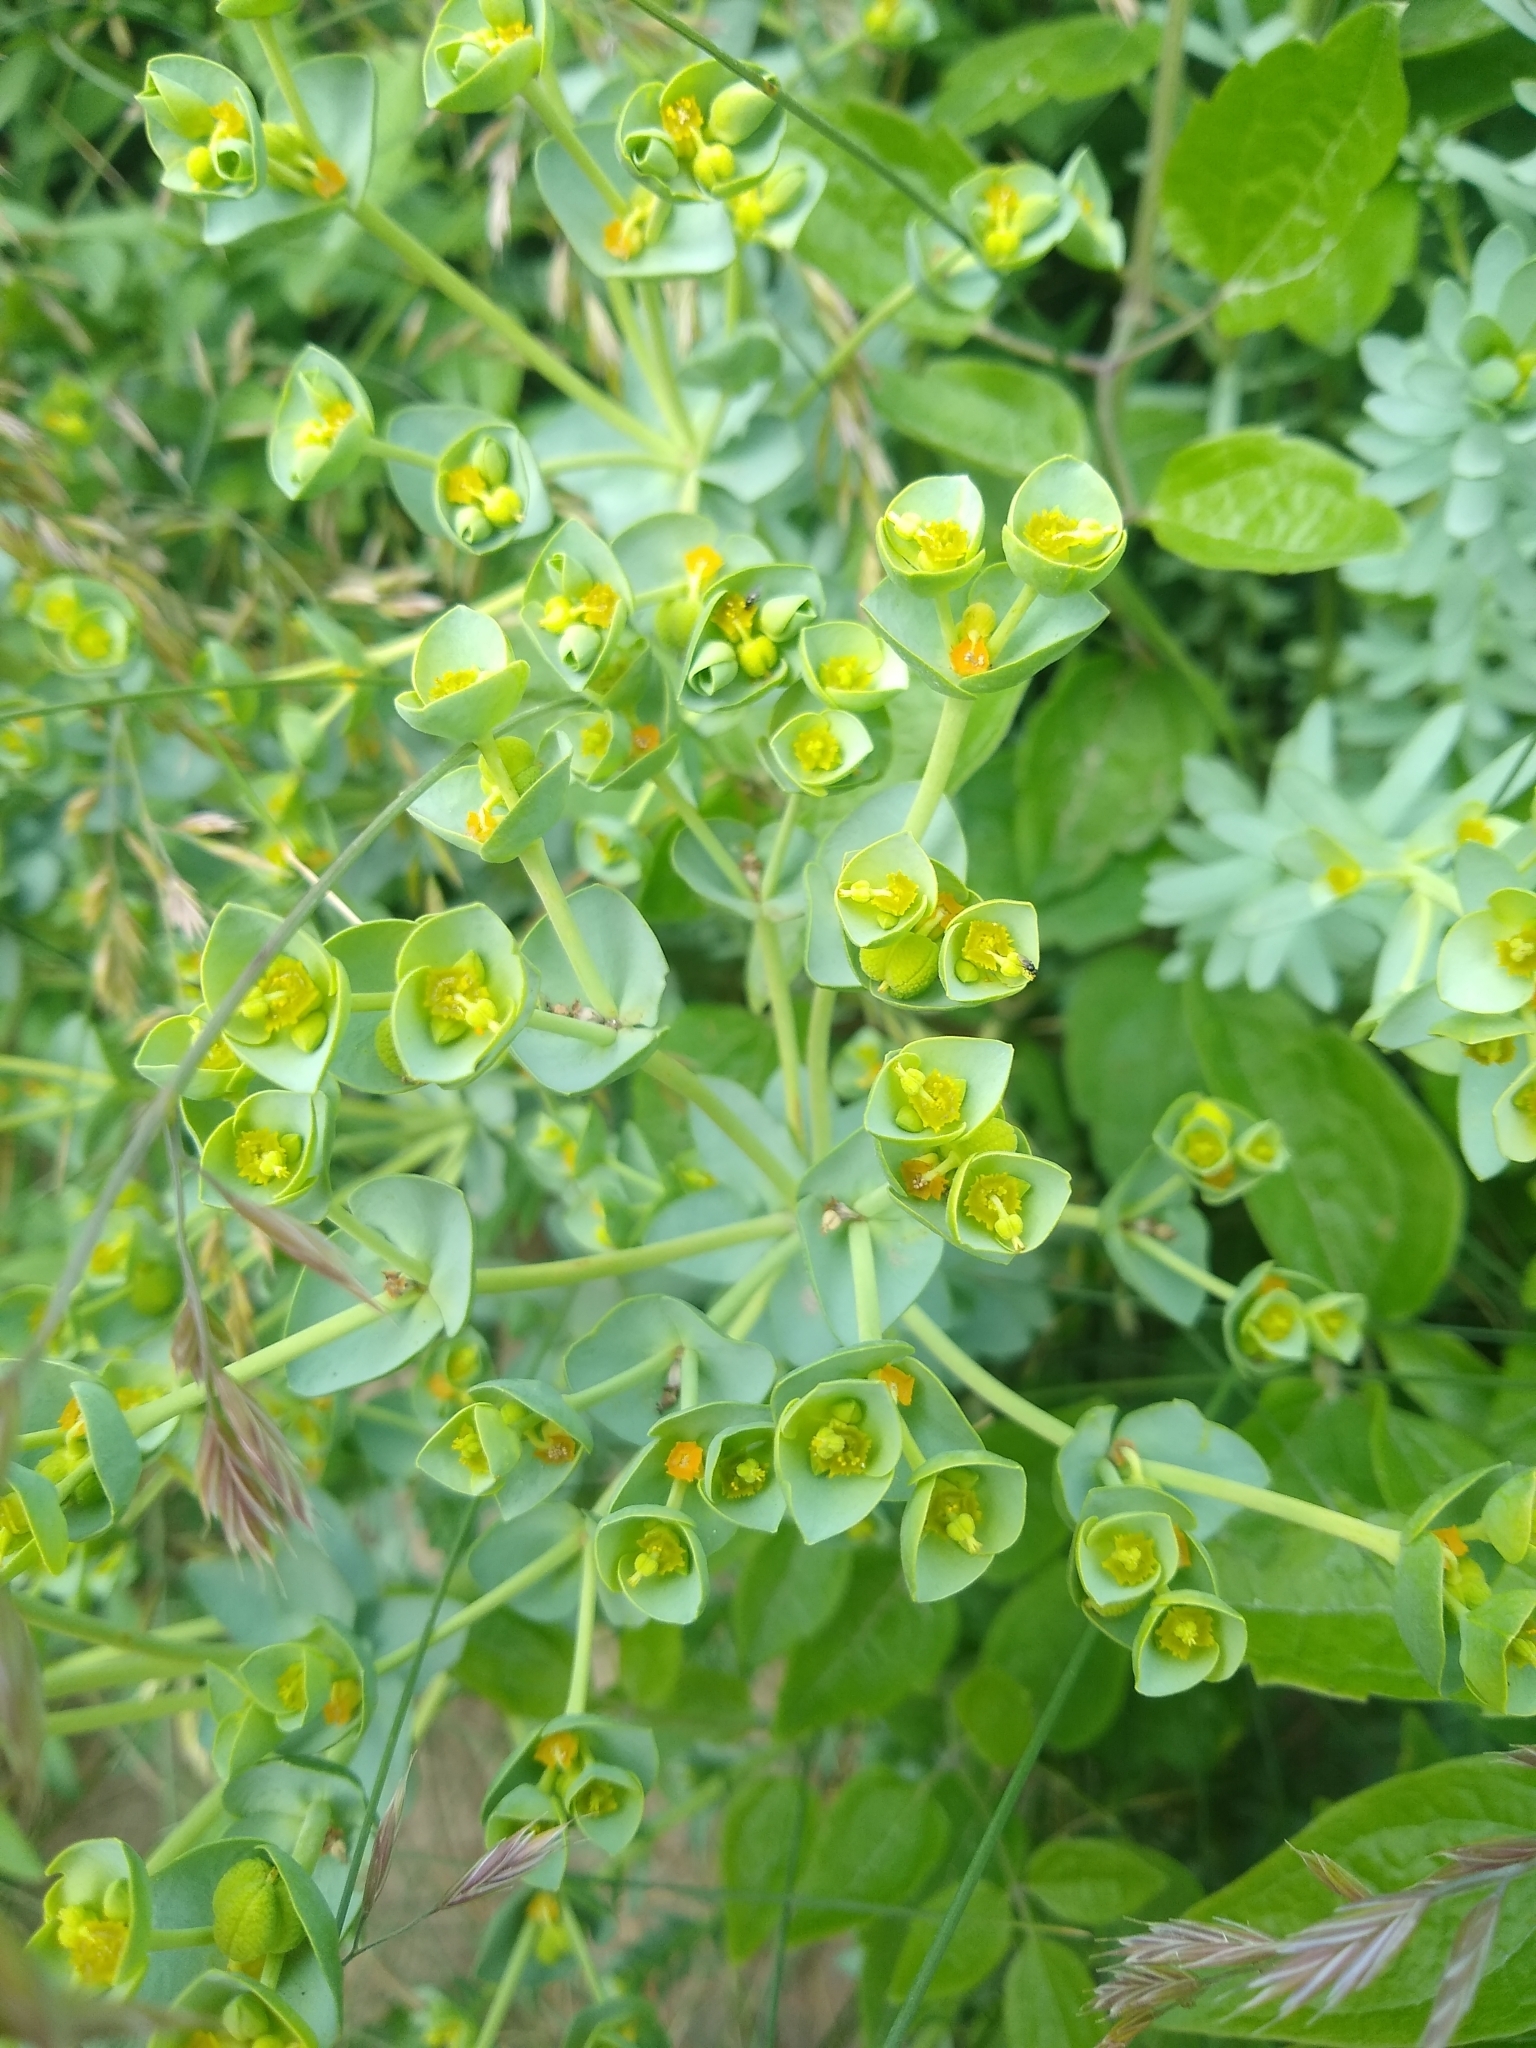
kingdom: Plantae
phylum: Tracheophyta
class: Magnoliopsida
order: Malpighiales
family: Euphorbiaceae
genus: Euphorbia
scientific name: Euphorbia paralias
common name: Sea spurge
